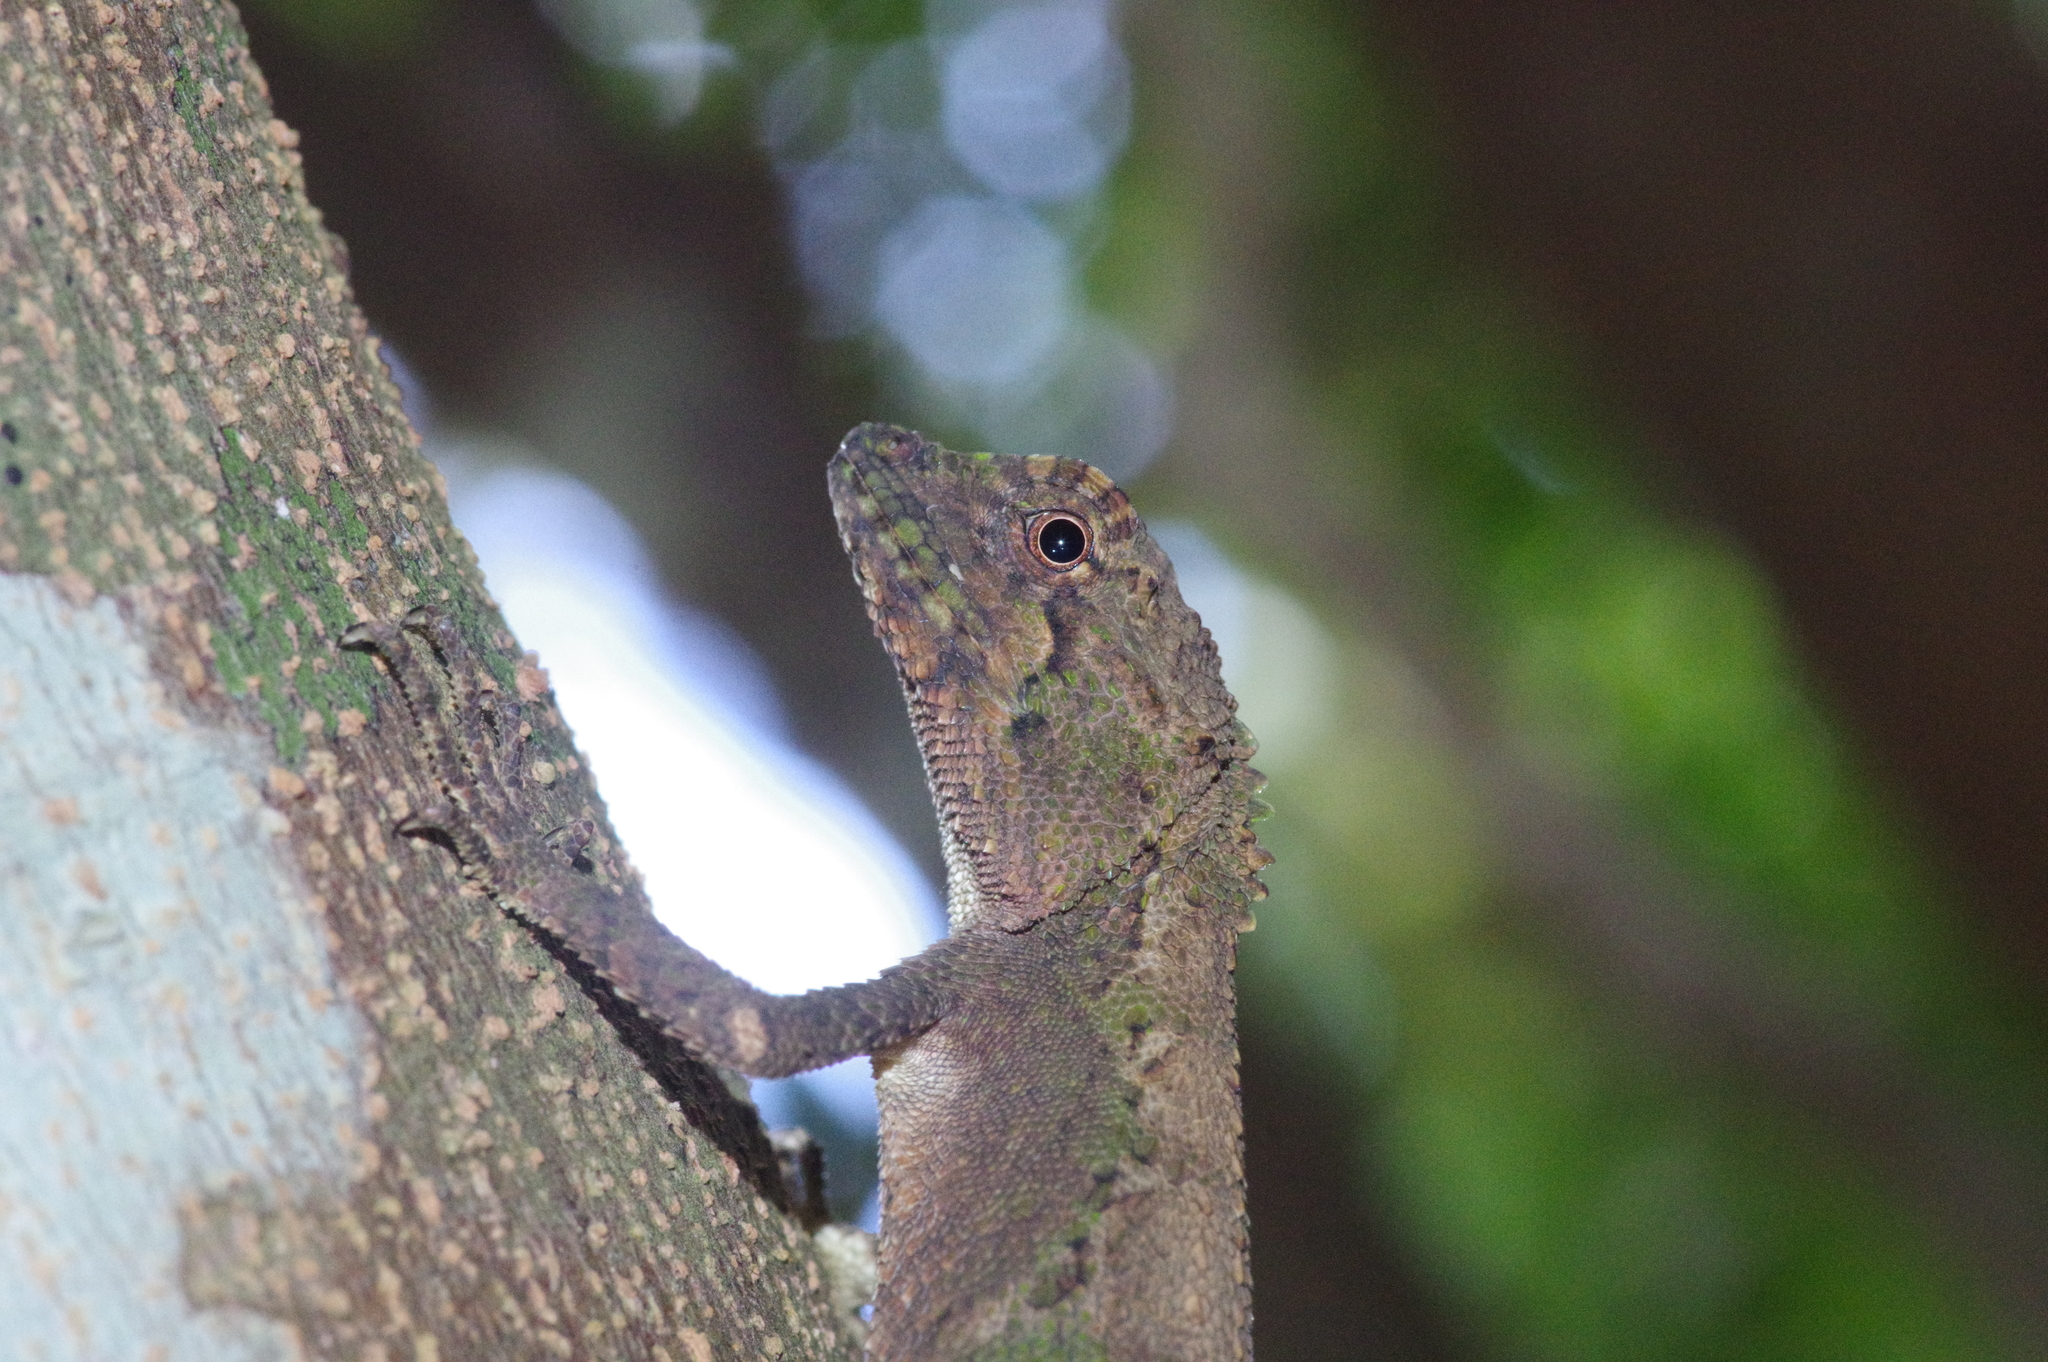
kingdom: Fungi
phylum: Basidiomycota
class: Agaricomycetes
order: Boletales
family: Diplocystidiaceae
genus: Diploderma
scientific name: Diploderma polygonatum
